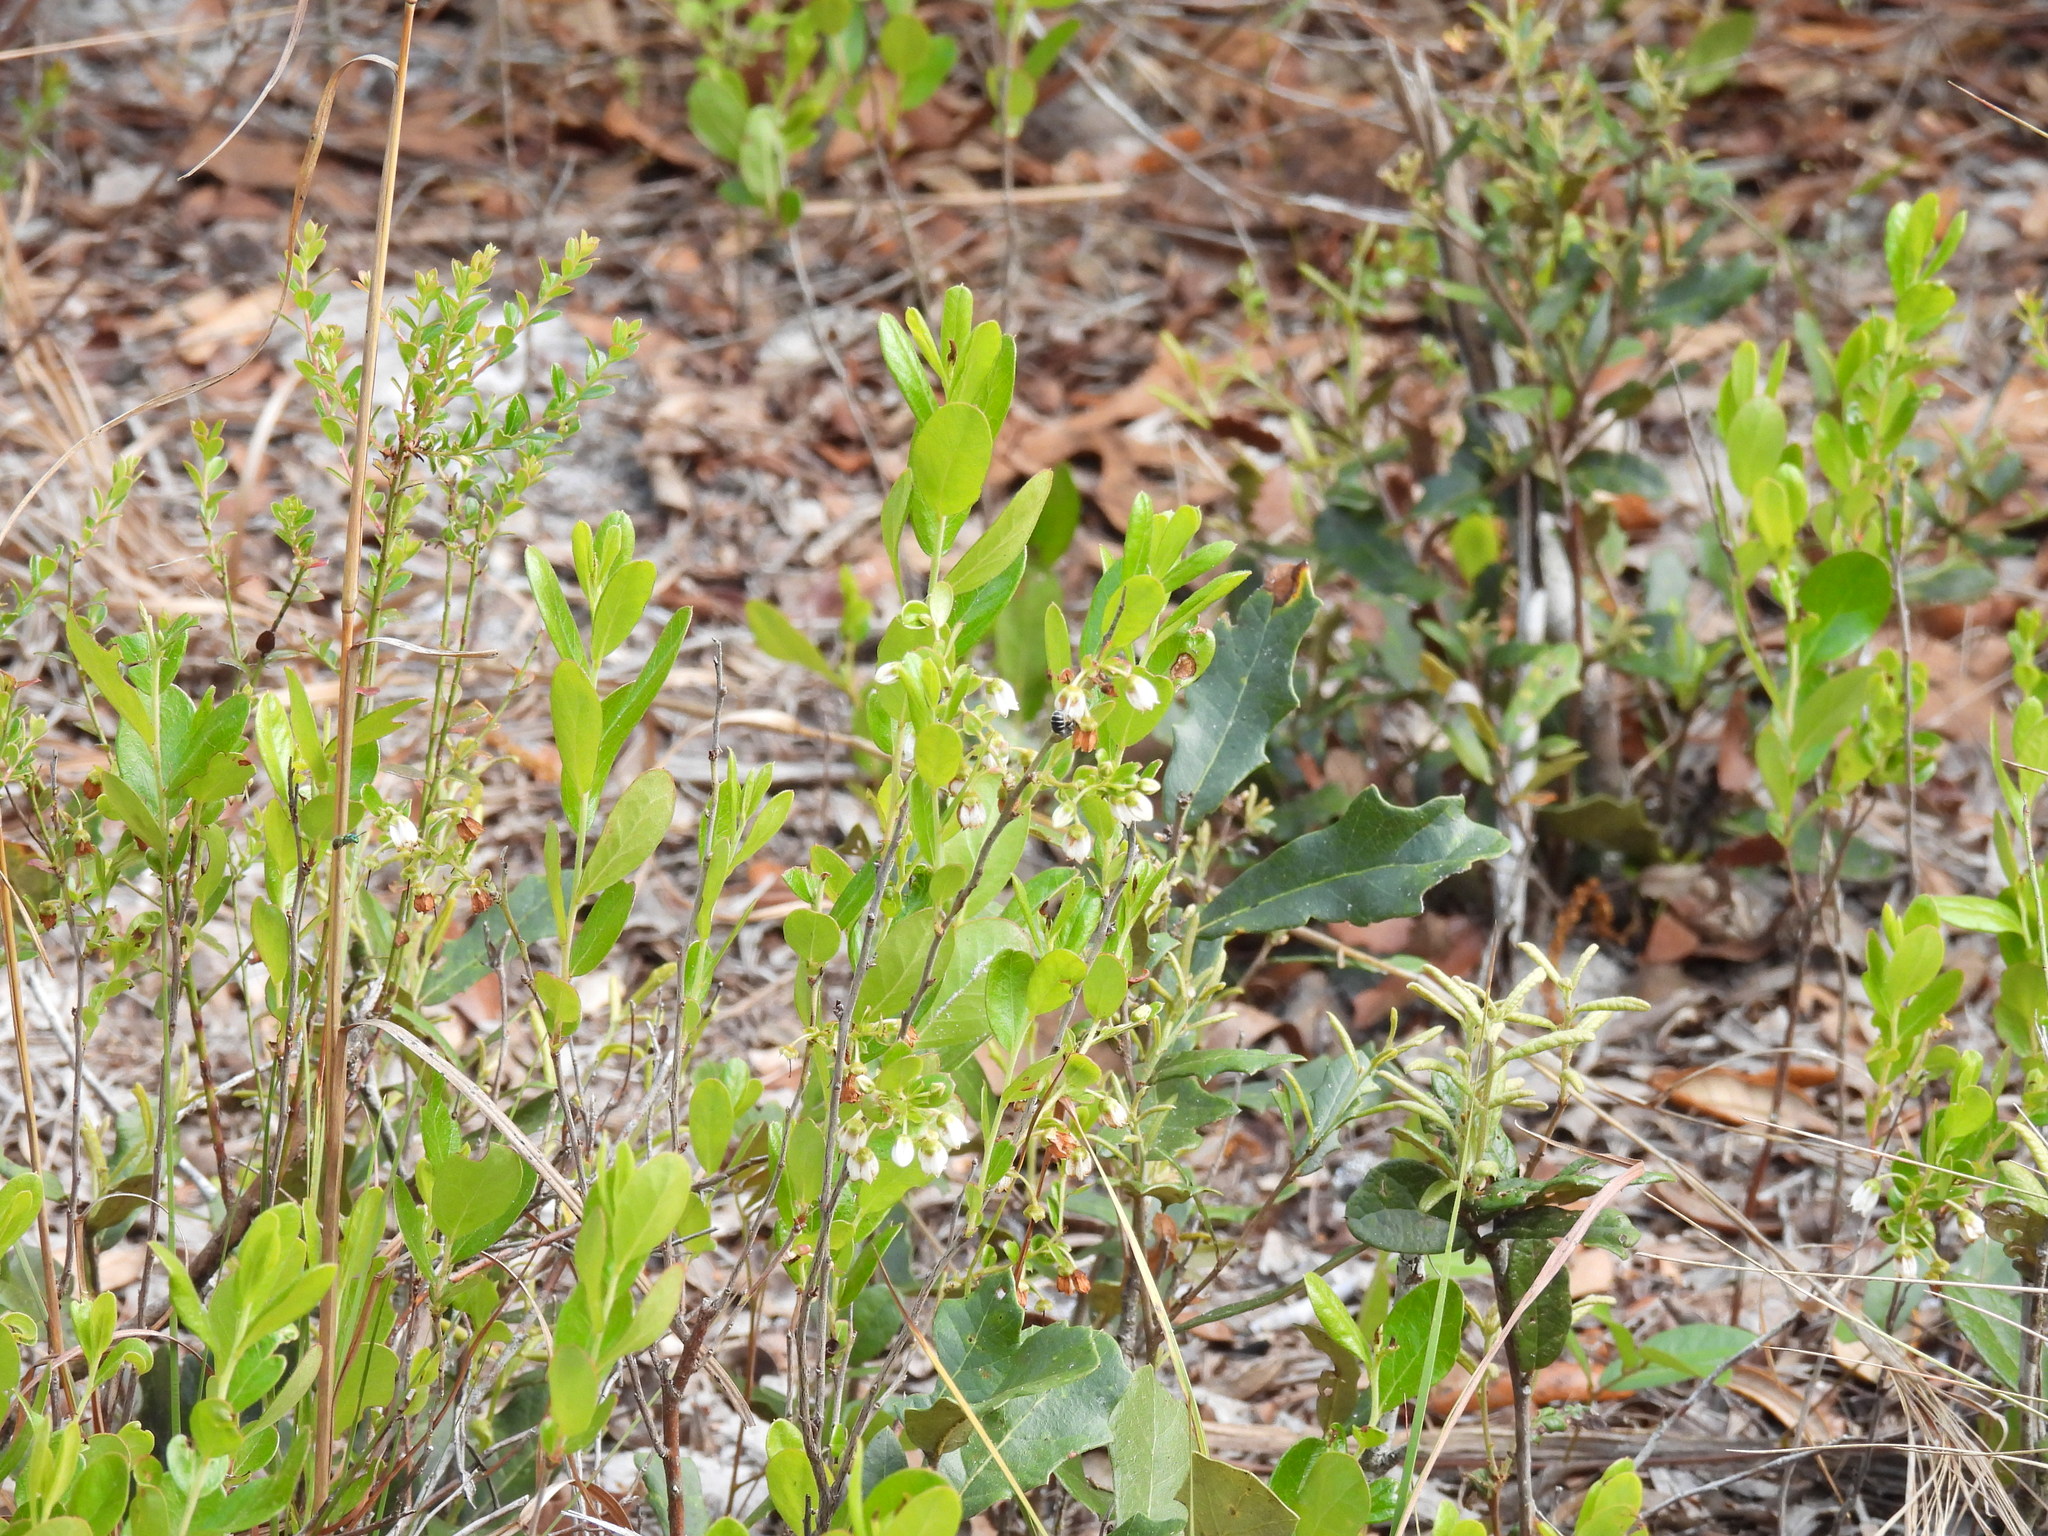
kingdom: Plantae
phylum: Tracheophyta
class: Magnoliopsida
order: Ericales
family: Ericaceae
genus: Gaylussacia
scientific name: Gaylussacia dumosa
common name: Dwarf huckleberry
